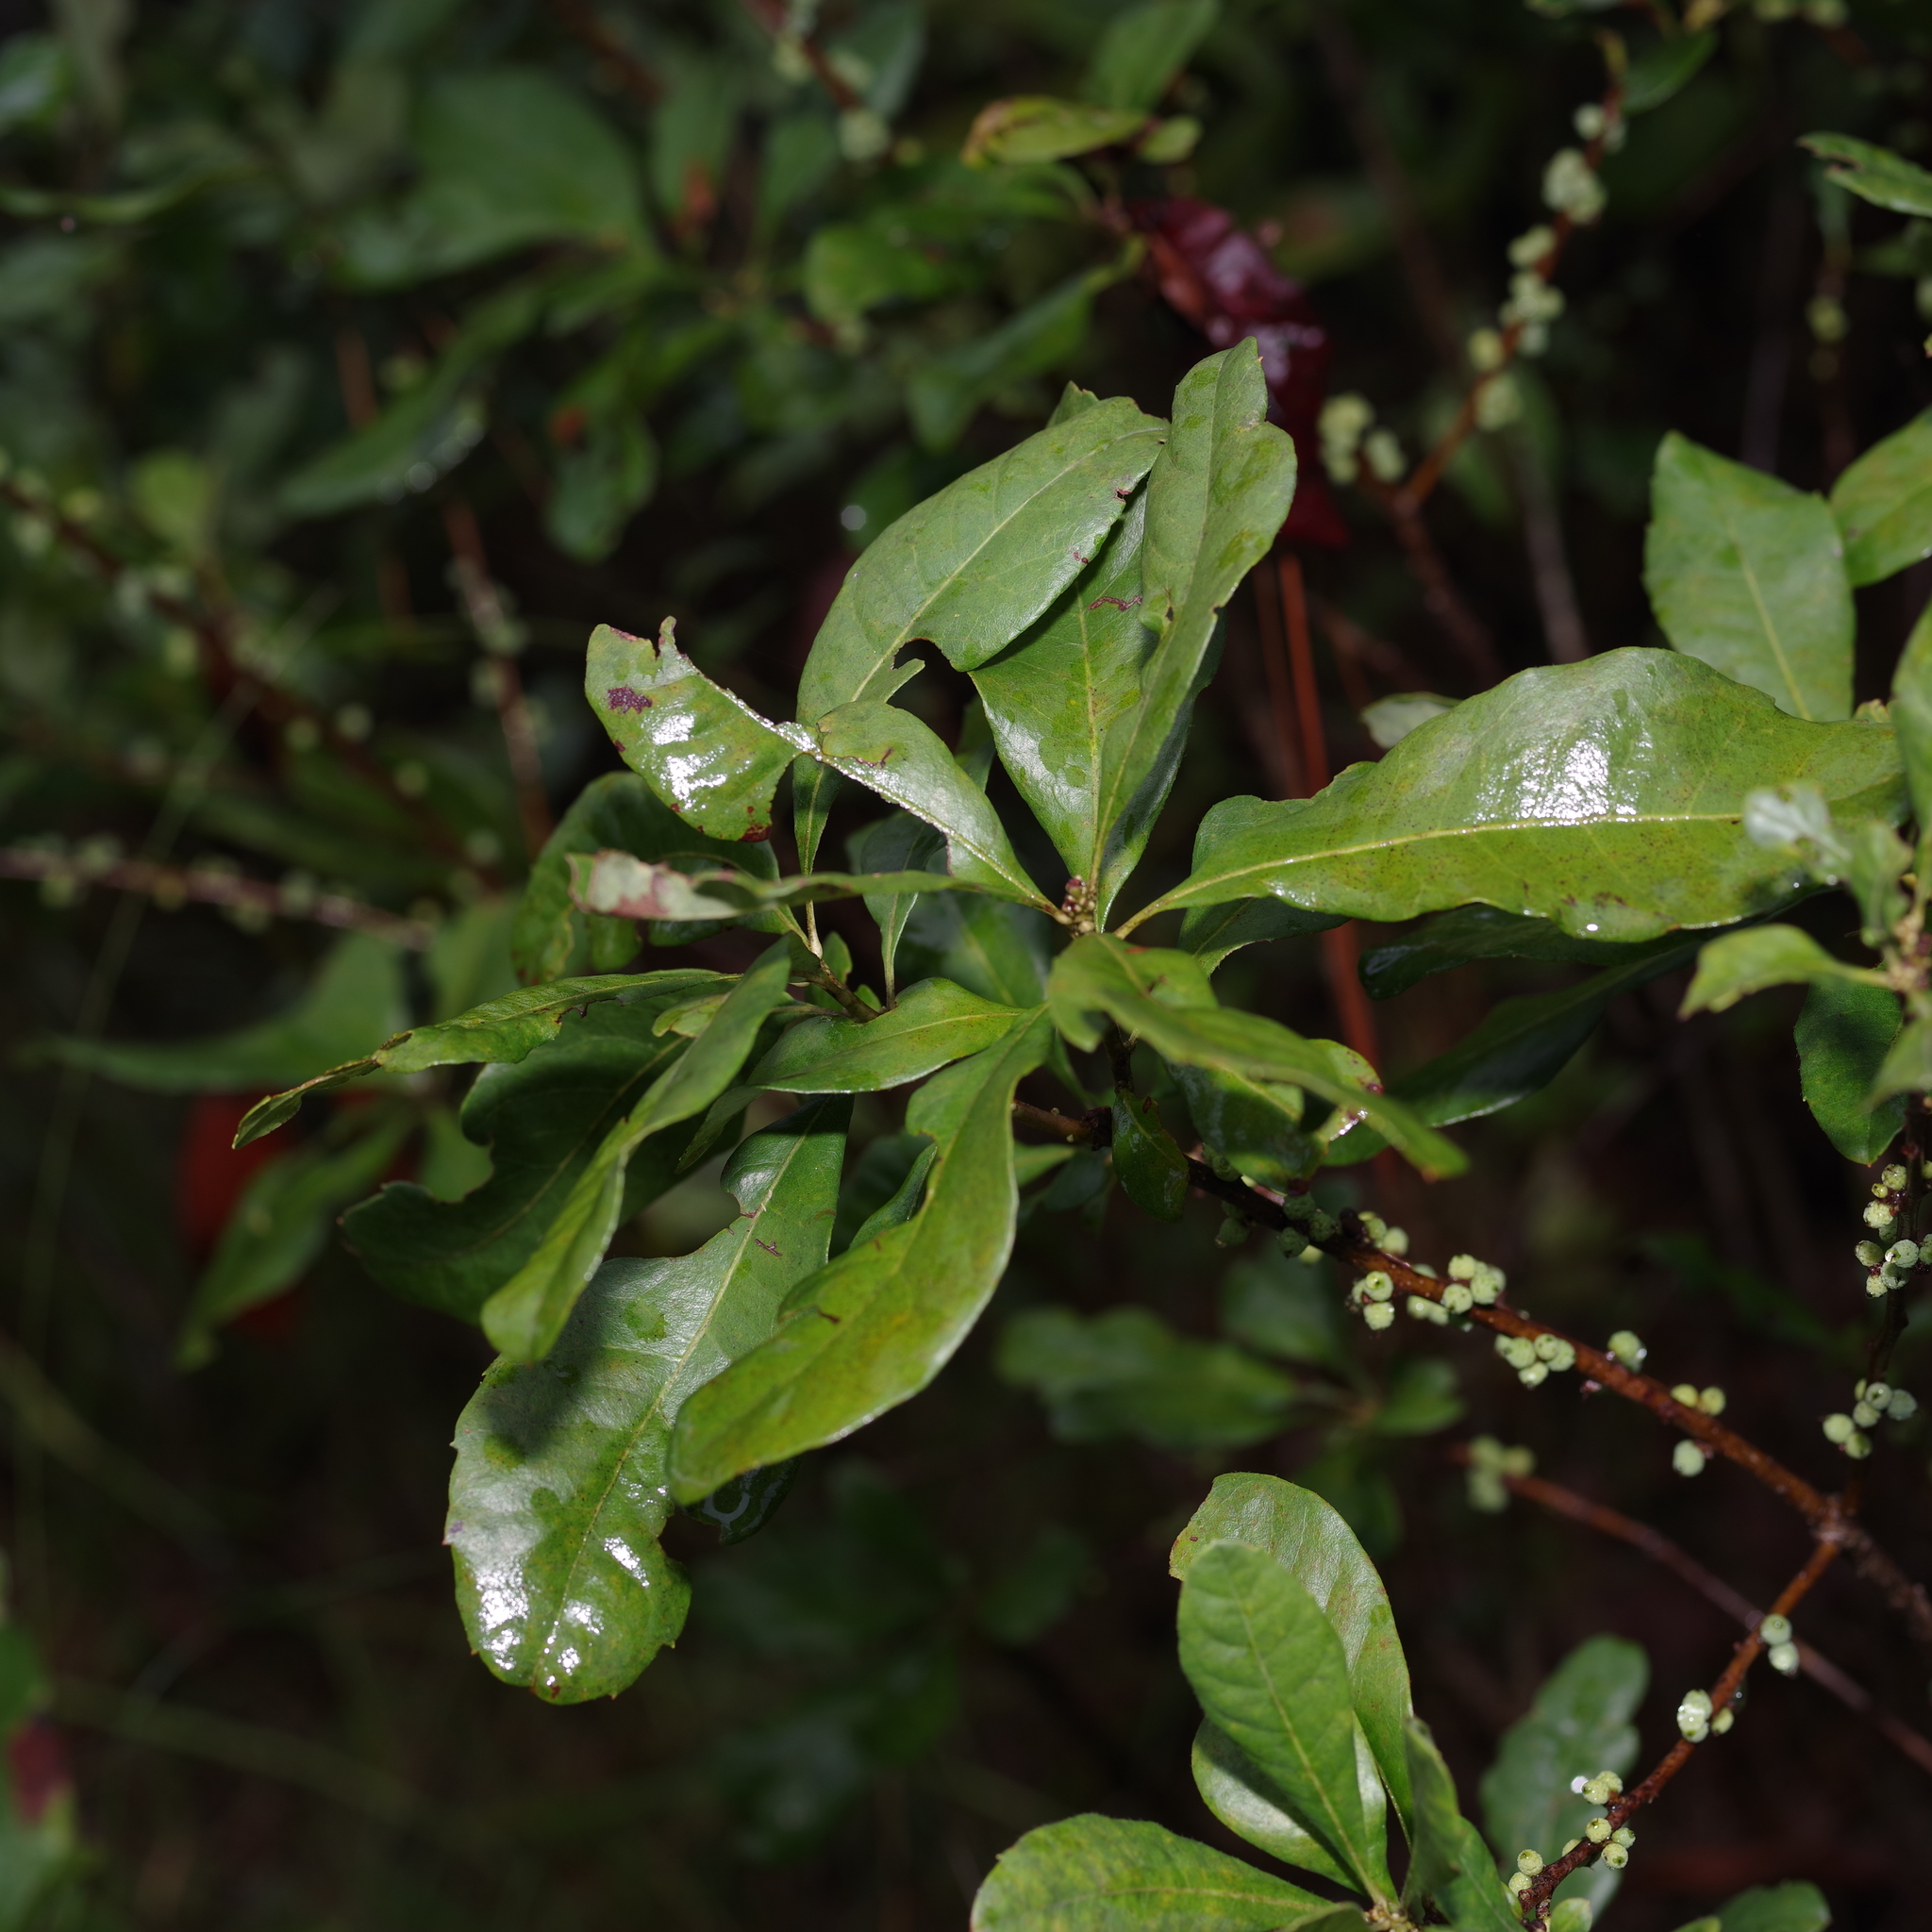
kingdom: Plantae
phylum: Tracheophyta
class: Magnoliopsida
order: Fagales
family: Myricaceae
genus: Morella
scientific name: Morella cerifera
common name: Wax myrtle
